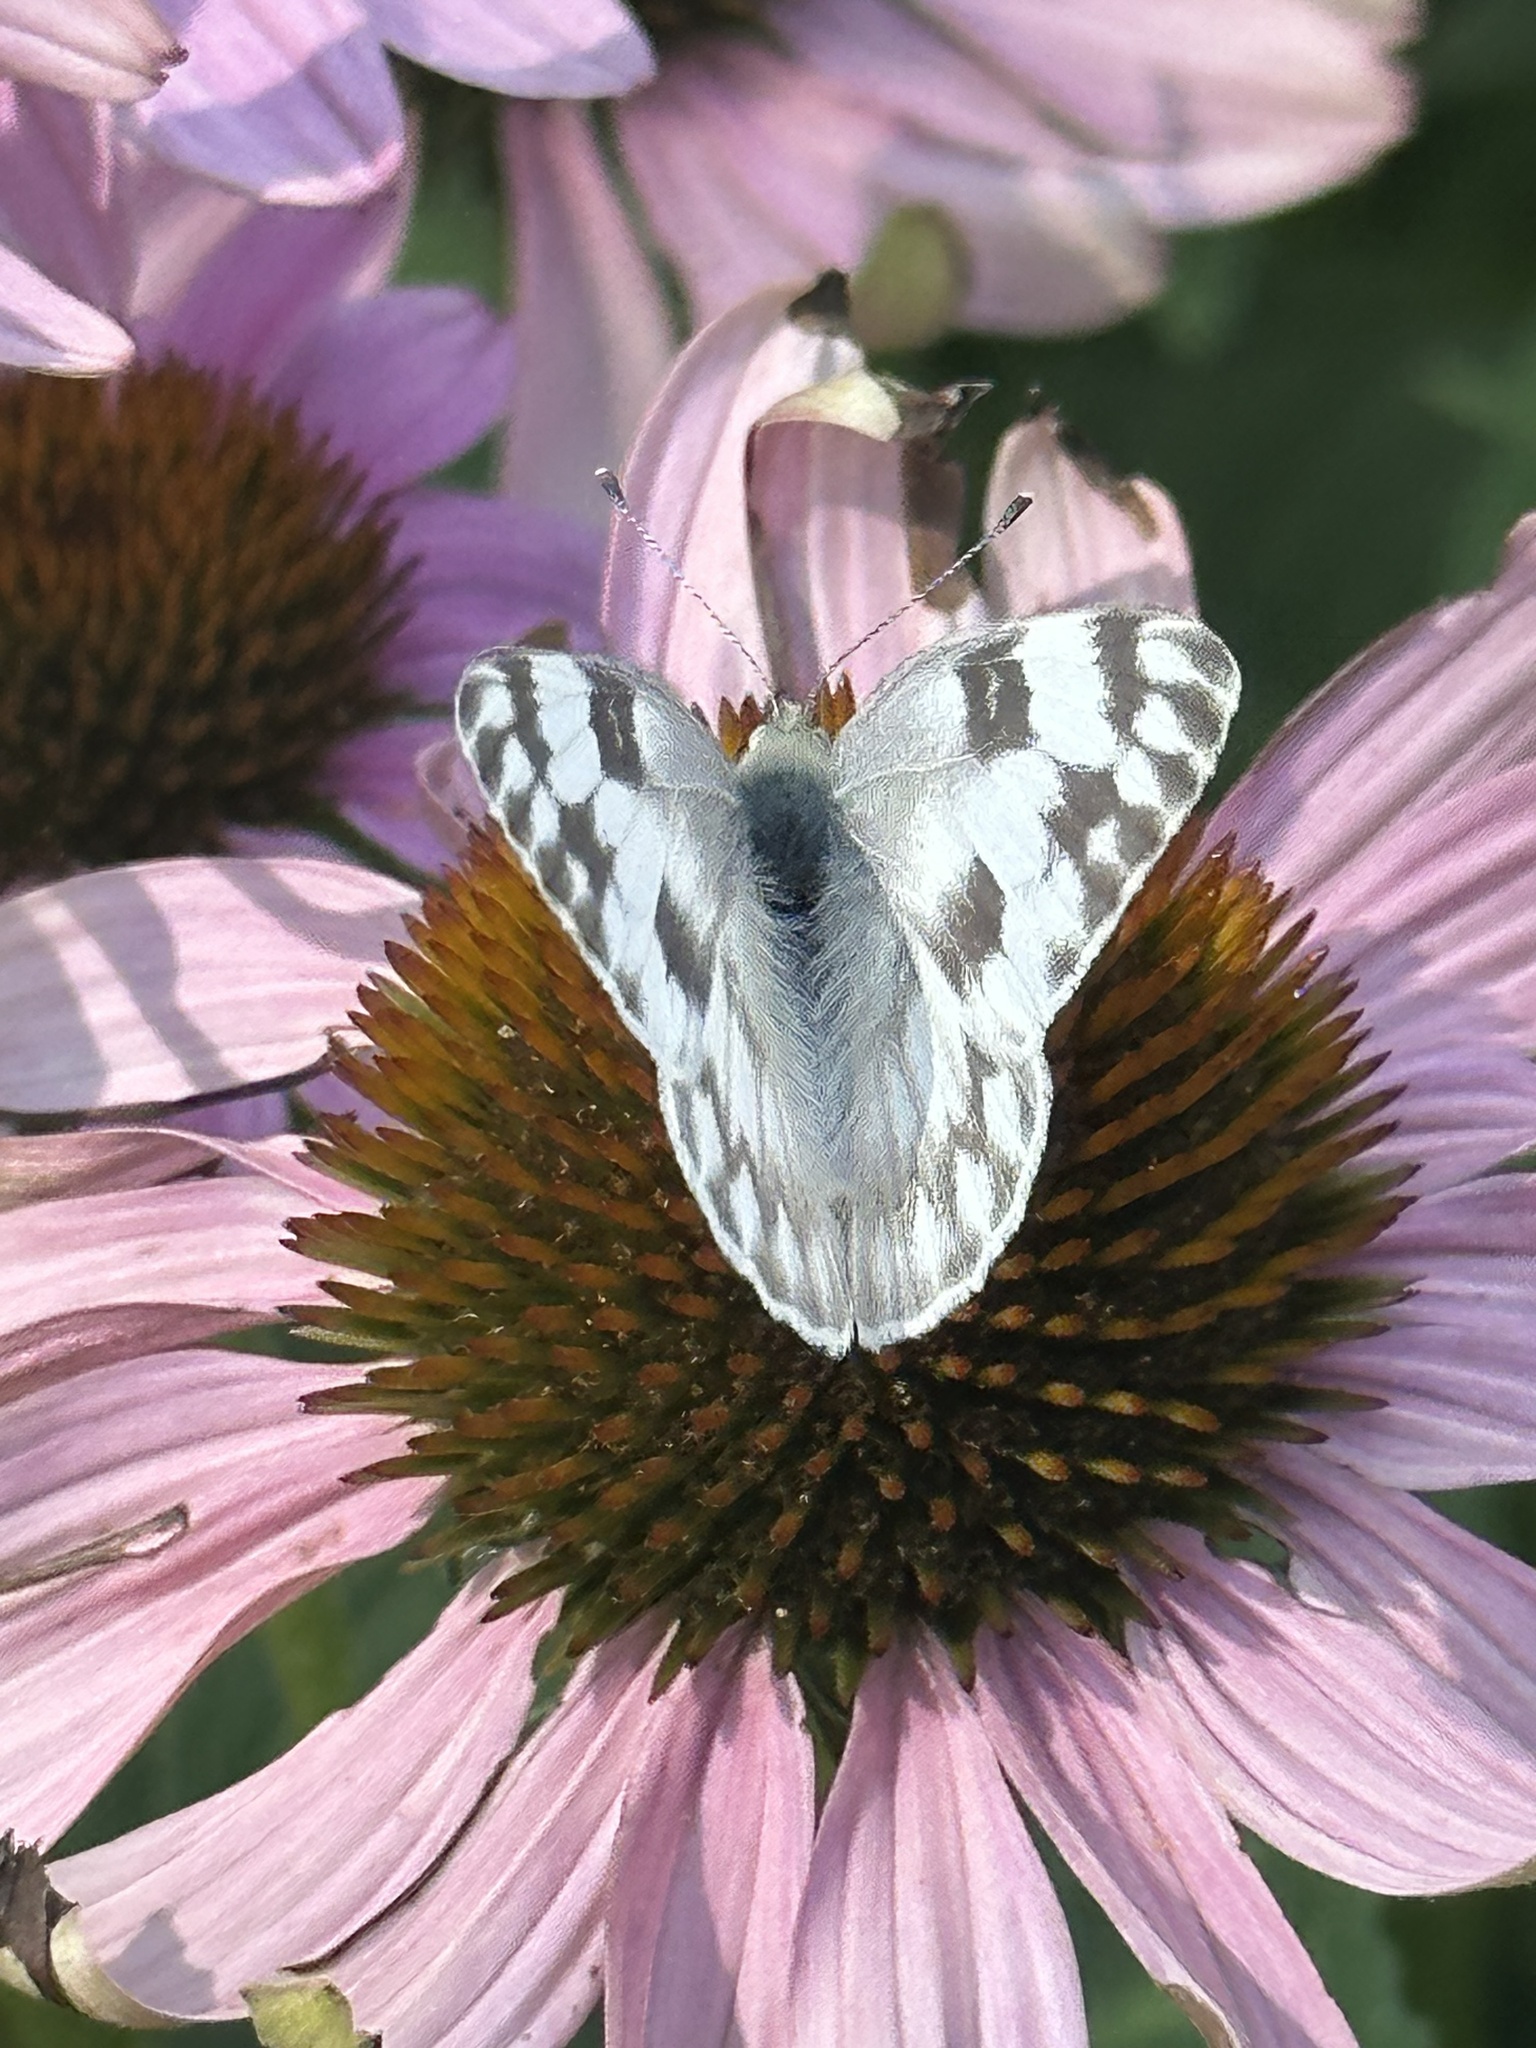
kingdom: Animalia
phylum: Arthropoda
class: Insecta
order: Lepidoptera
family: Pieridae
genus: Pontia
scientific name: Pontia protodice
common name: Checkered white
